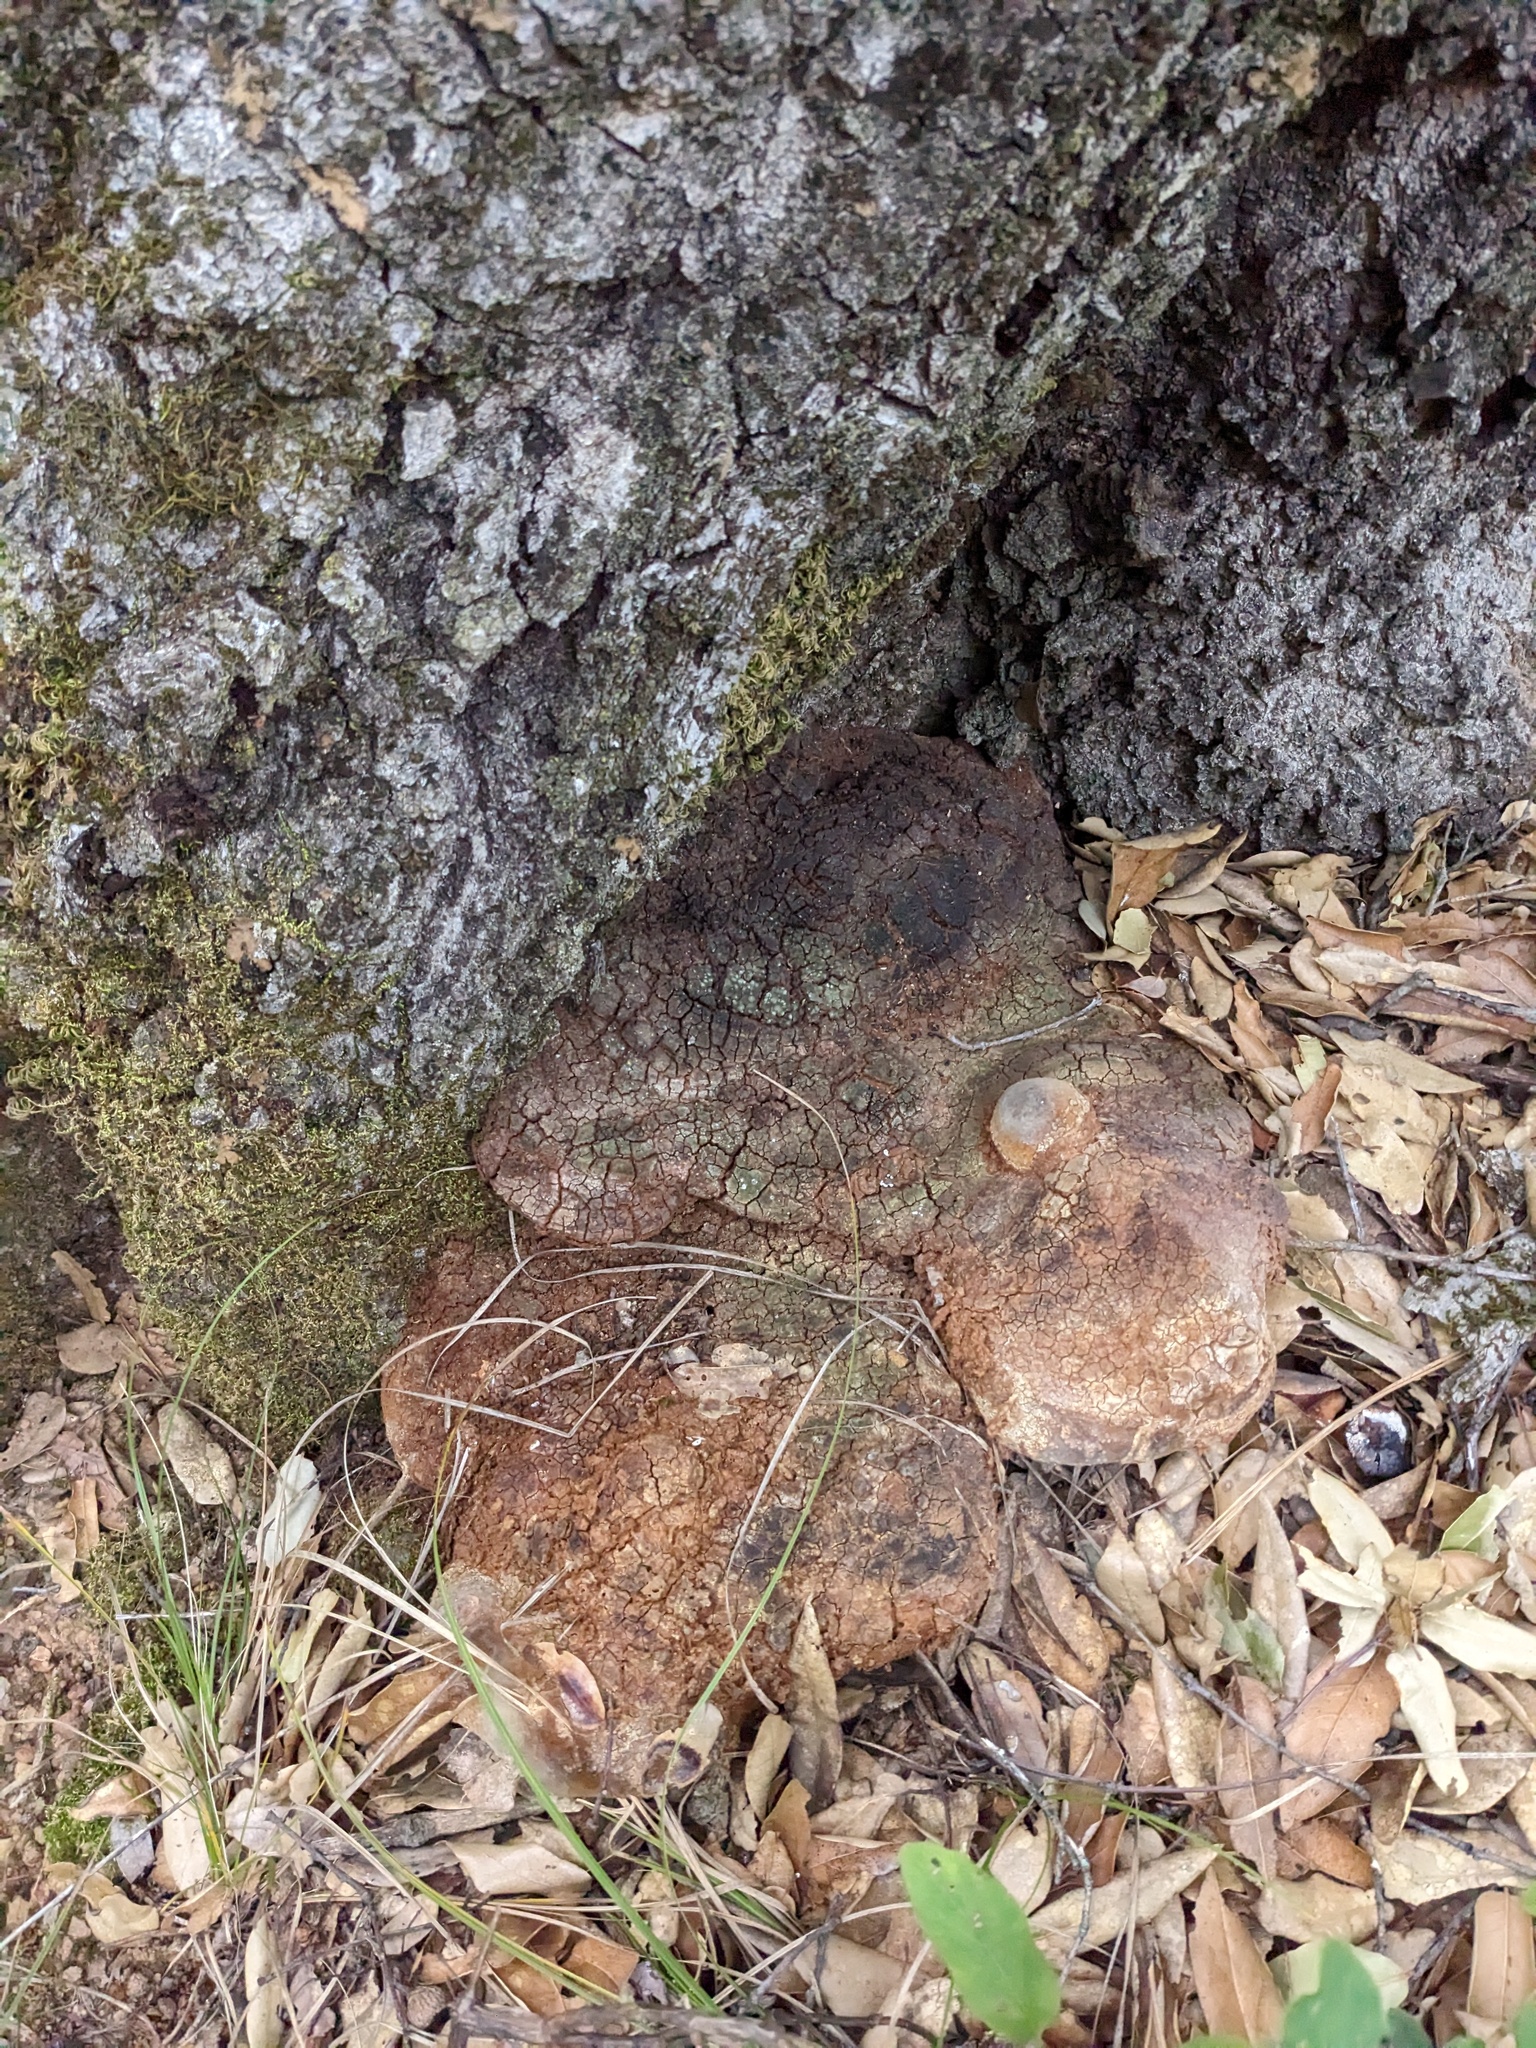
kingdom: Fungi
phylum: Basidiomycota
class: Agaricomycetes
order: Hymenochaetales
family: Hymenochaetaceae
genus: Pseudoinonotus
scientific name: Pseudoinonotus dryadeus
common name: Oak bracket
